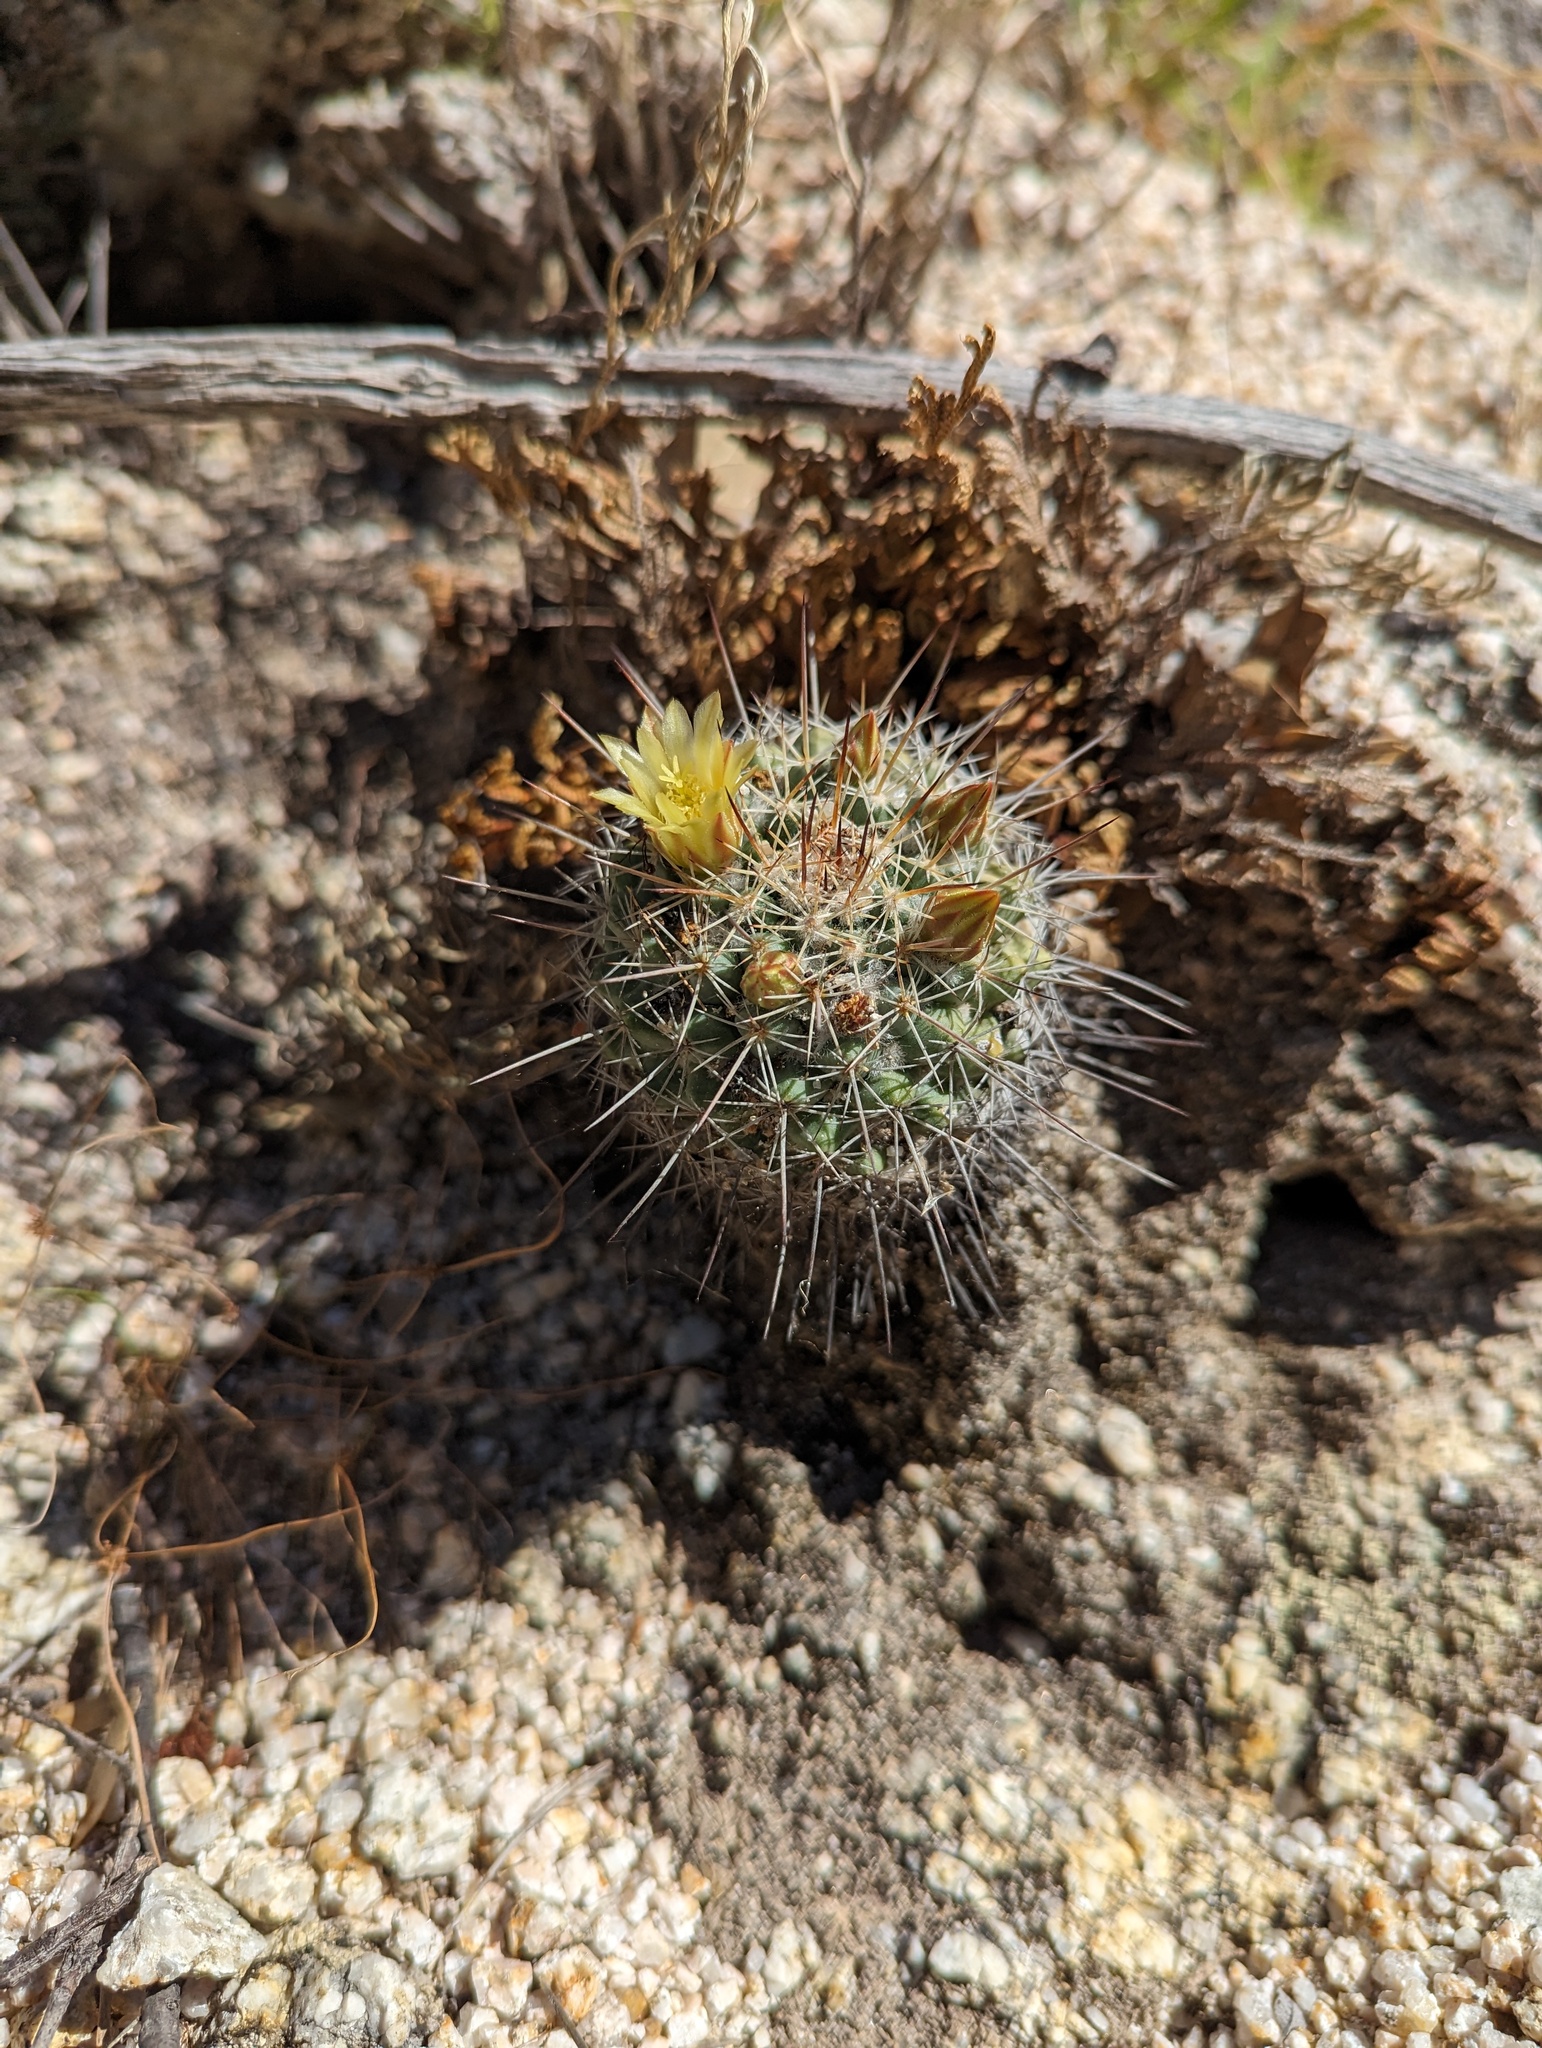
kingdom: Plantae
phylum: Tracheophyta
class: Magnoliopsida
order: Caryophyllales
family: Cactaceae
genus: Mammillaria
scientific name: Mammillaria petrophila
